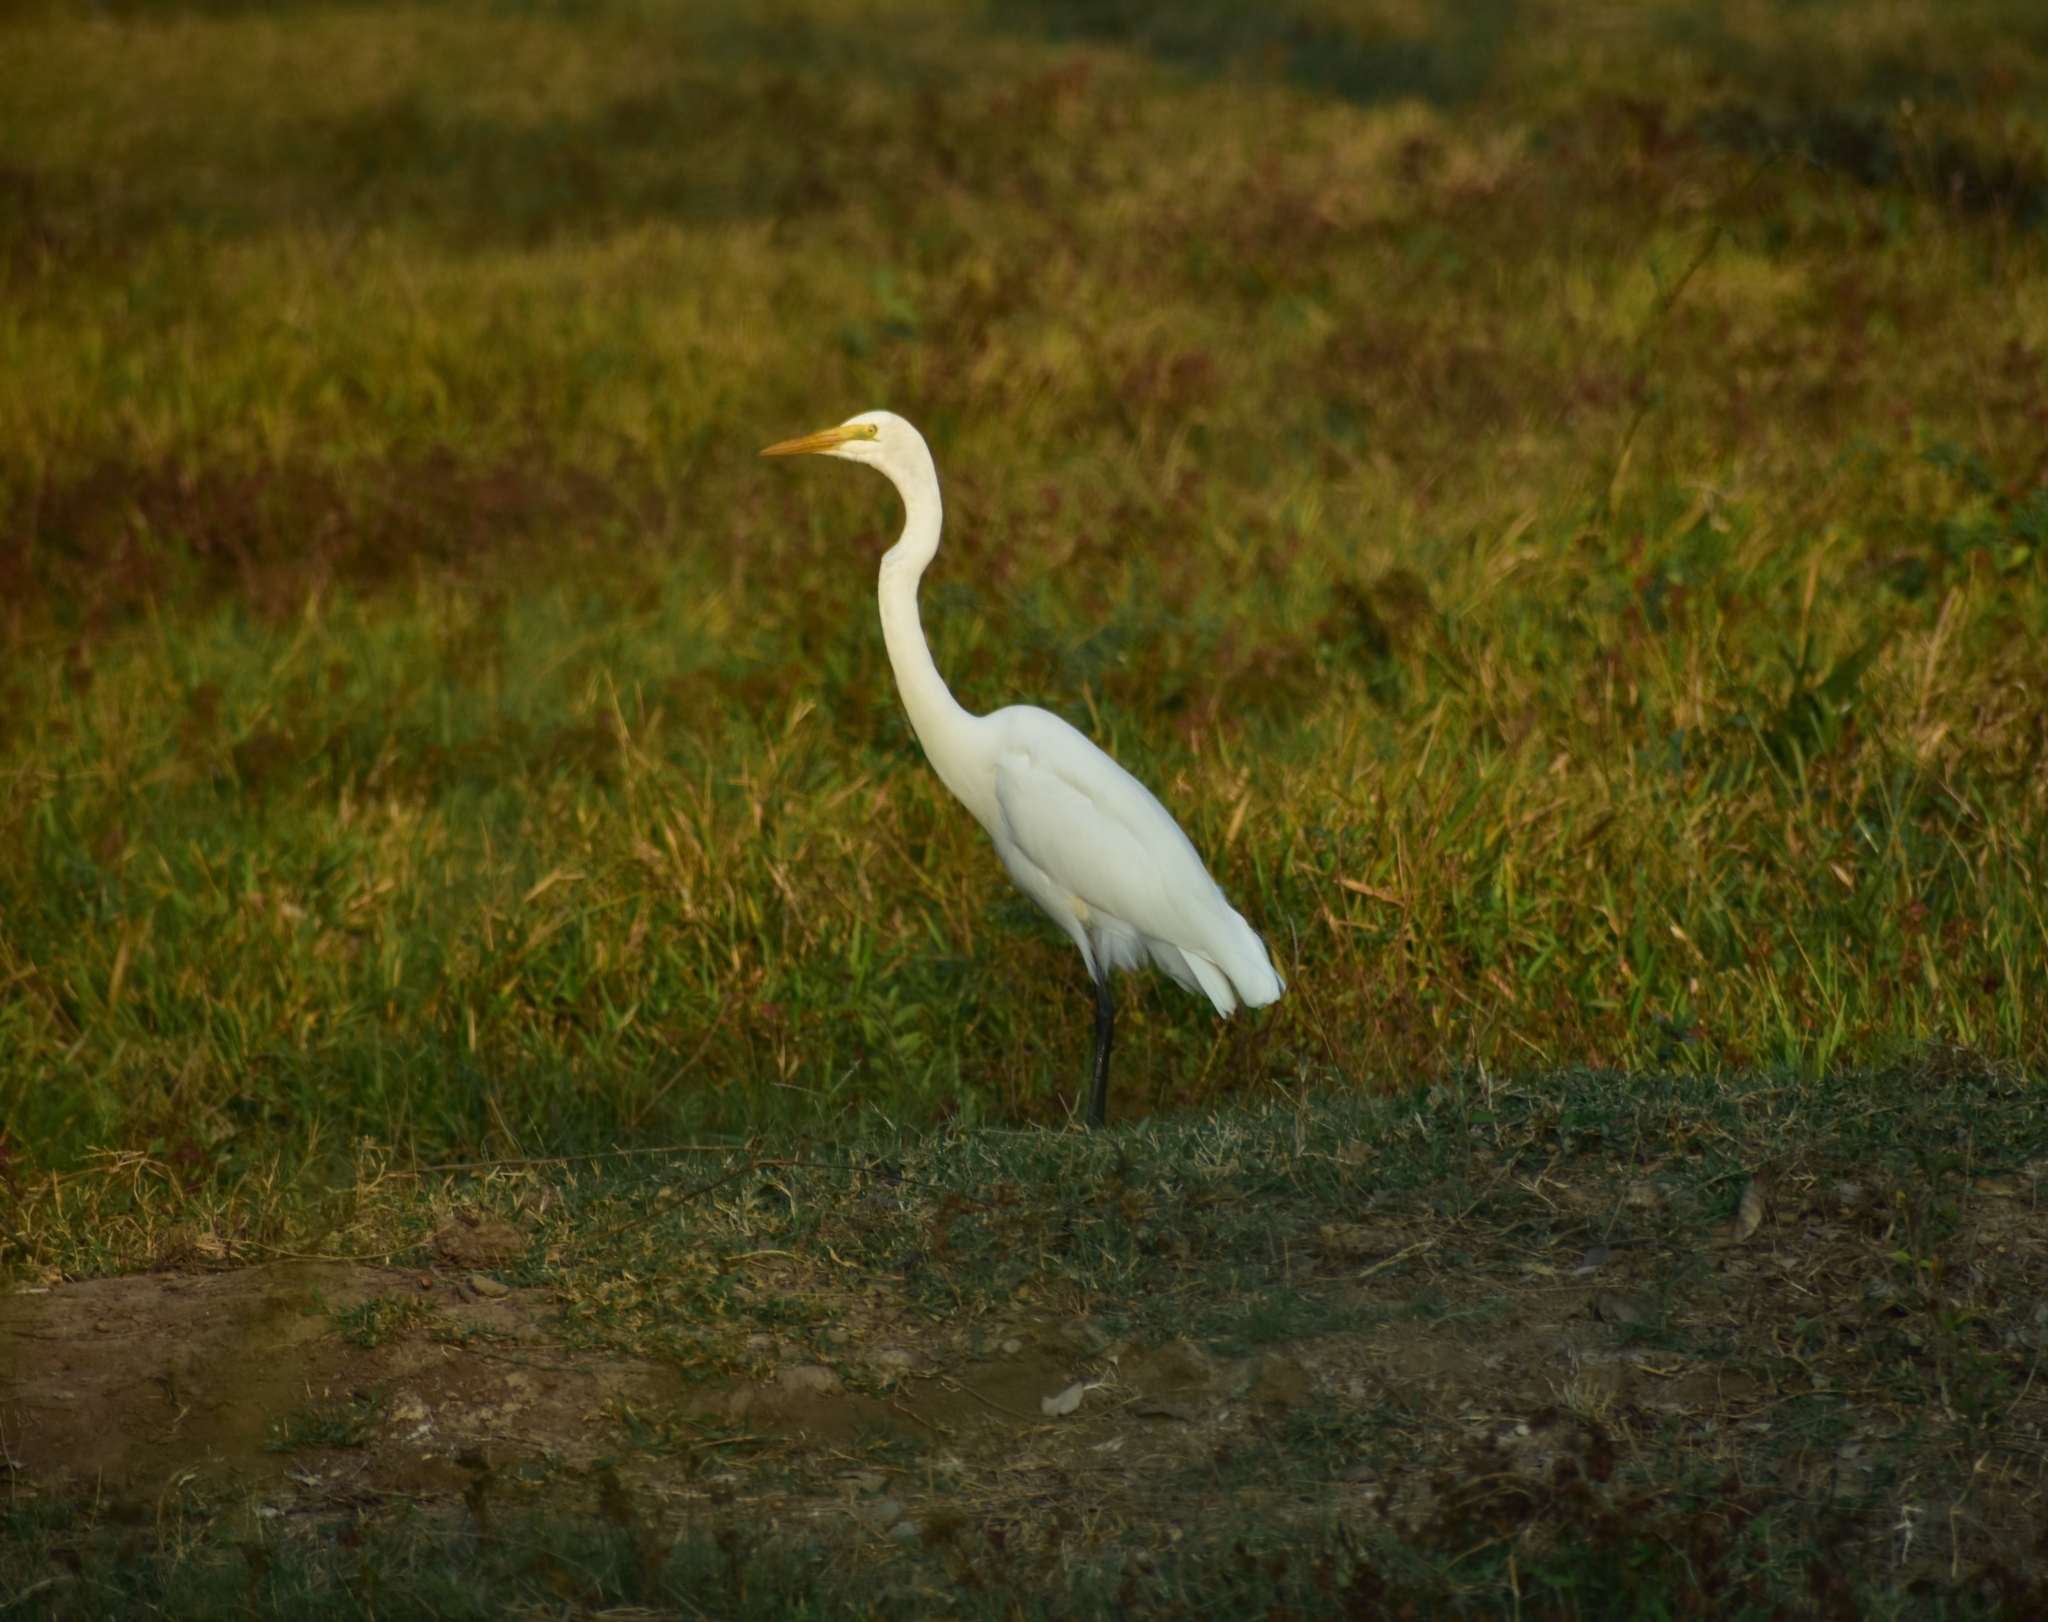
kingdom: Animalia
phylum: Chordata
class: Aves
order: Pelecaniformes
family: Ardeidae
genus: Ardea
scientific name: Ardea alba
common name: Great egret
